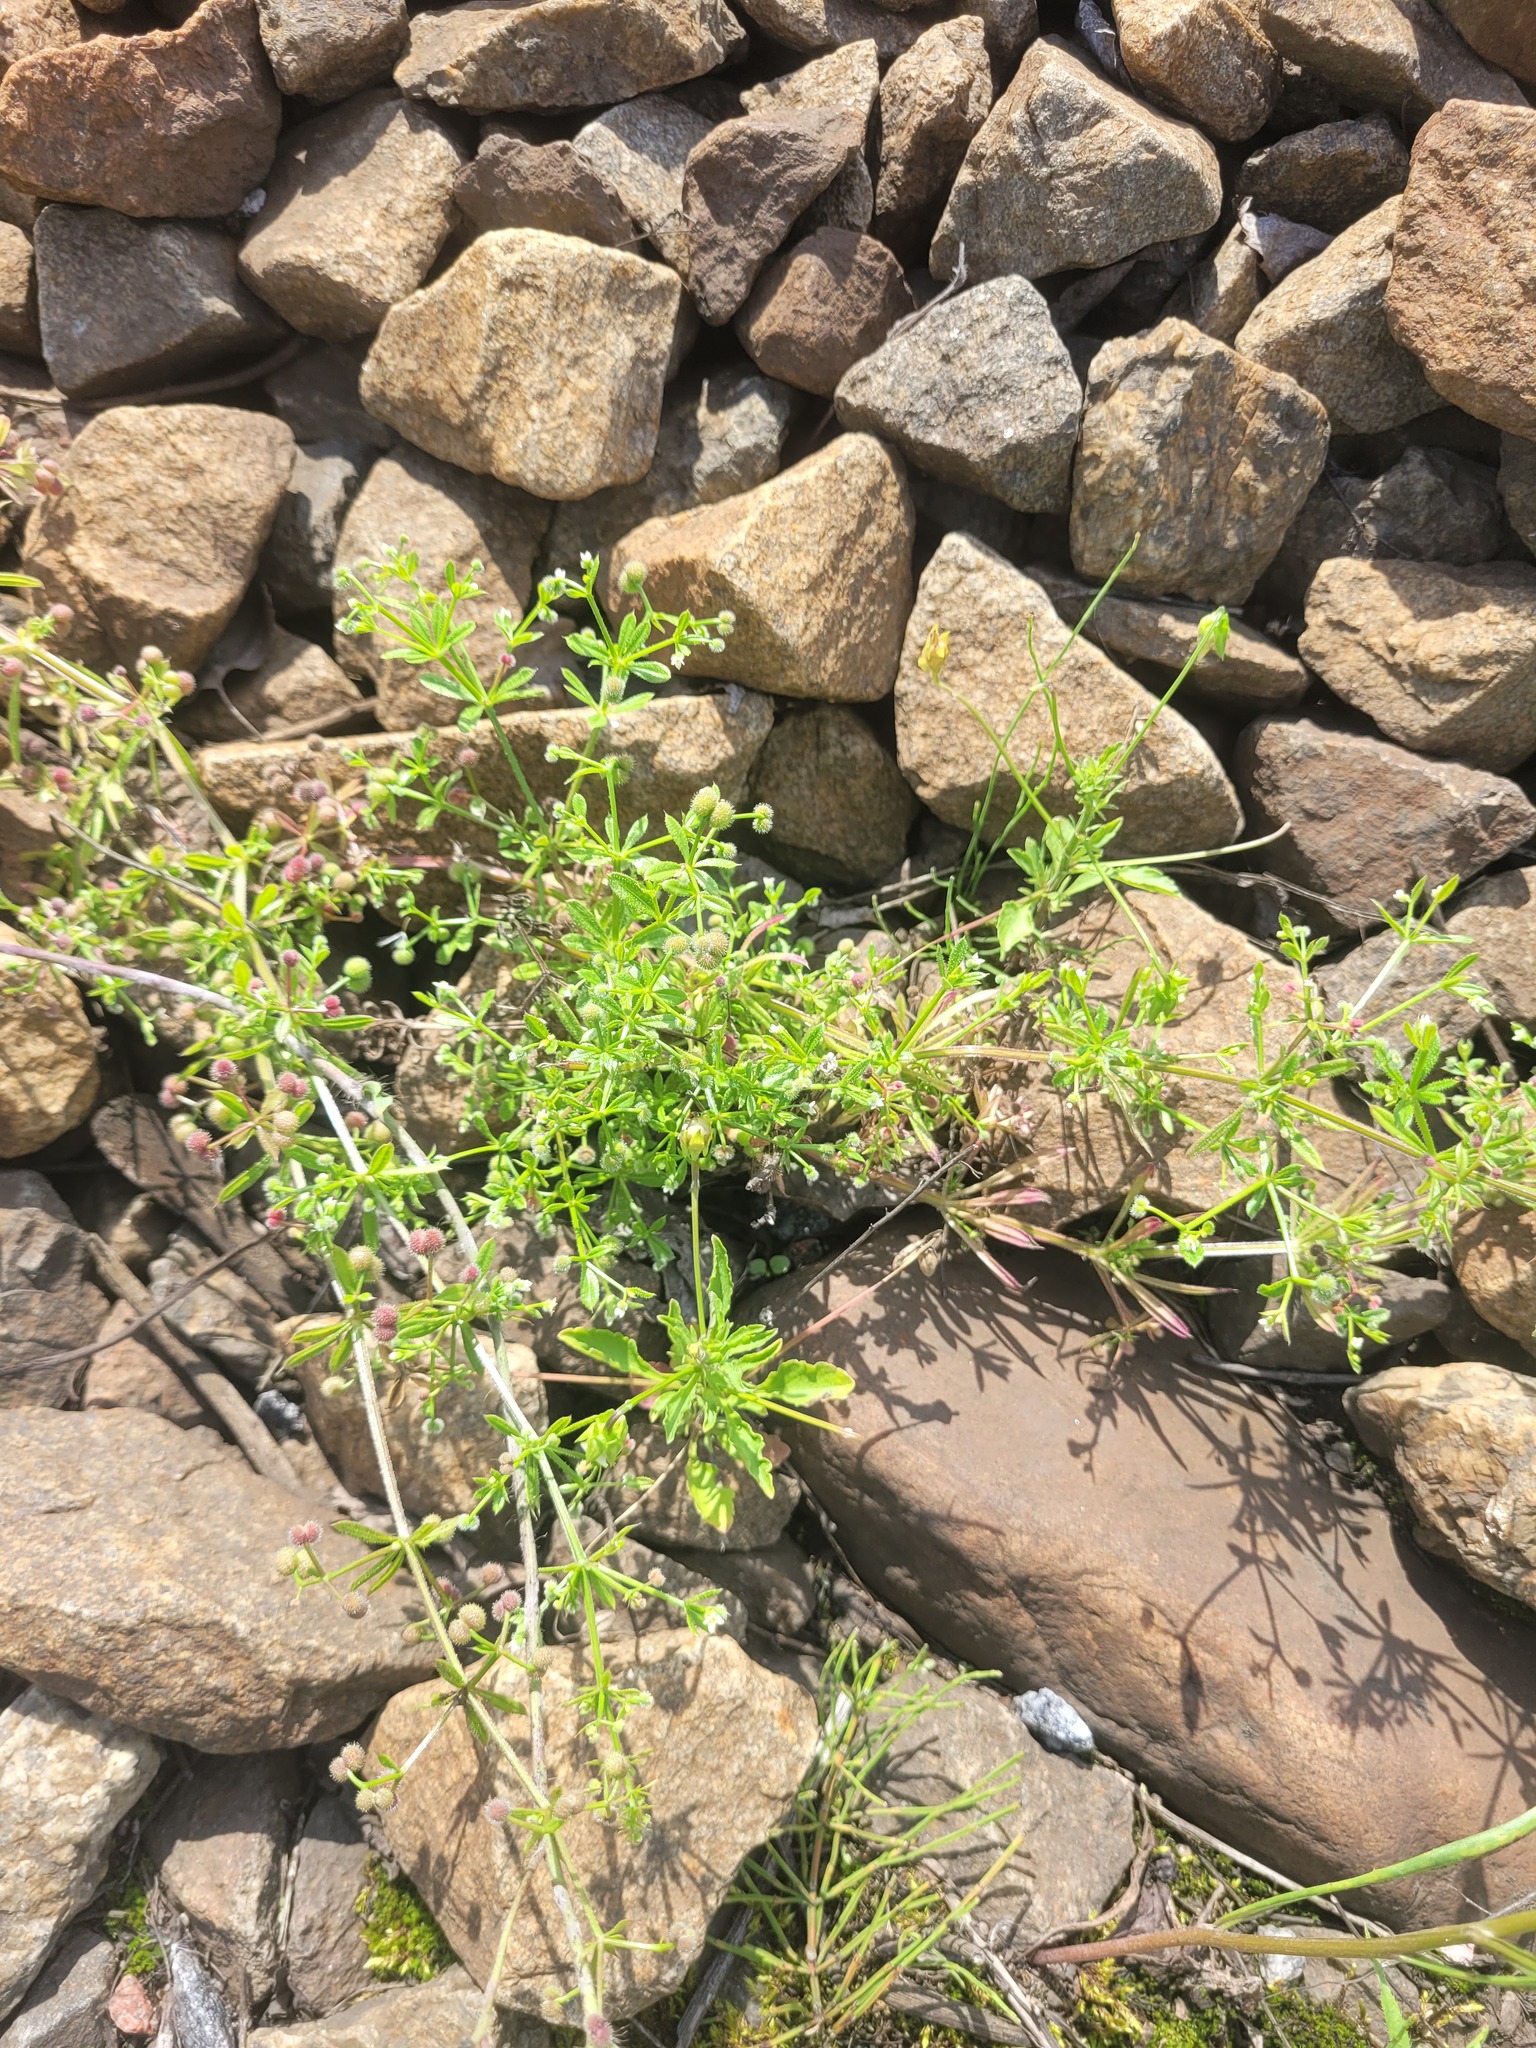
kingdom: Plantae
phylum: Tracheophyta
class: Magnoliopsida
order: Gentianales
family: Rubiaceae
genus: Galium
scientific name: Galium aparine
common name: Cleavers
